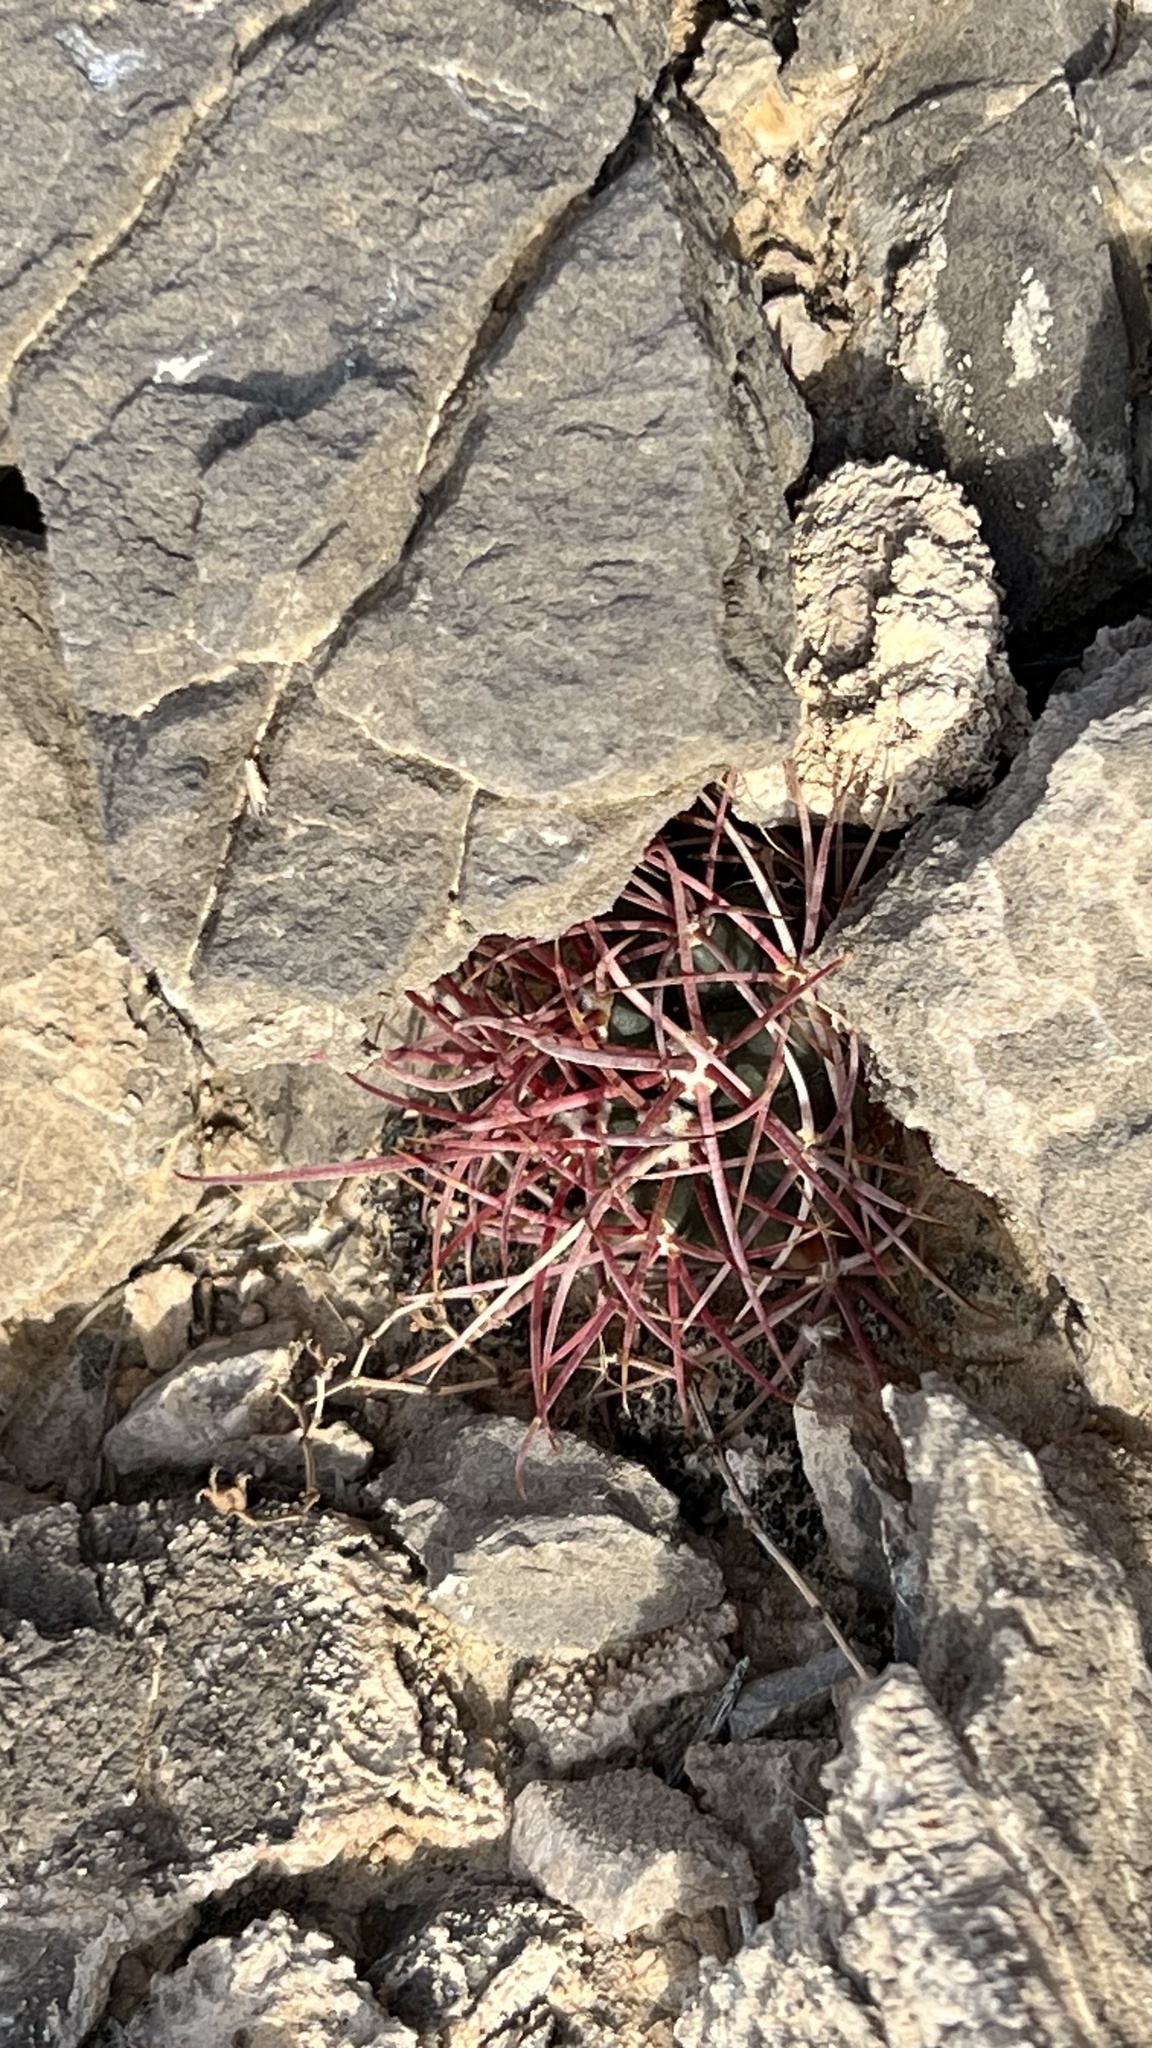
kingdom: Plantae
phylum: Tracheophyta
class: Magnoliopsida
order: Caryophyllales
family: Cactaceae
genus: Ferocactus
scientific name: Ferocactus cylindraceus
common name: California barrel cactus
